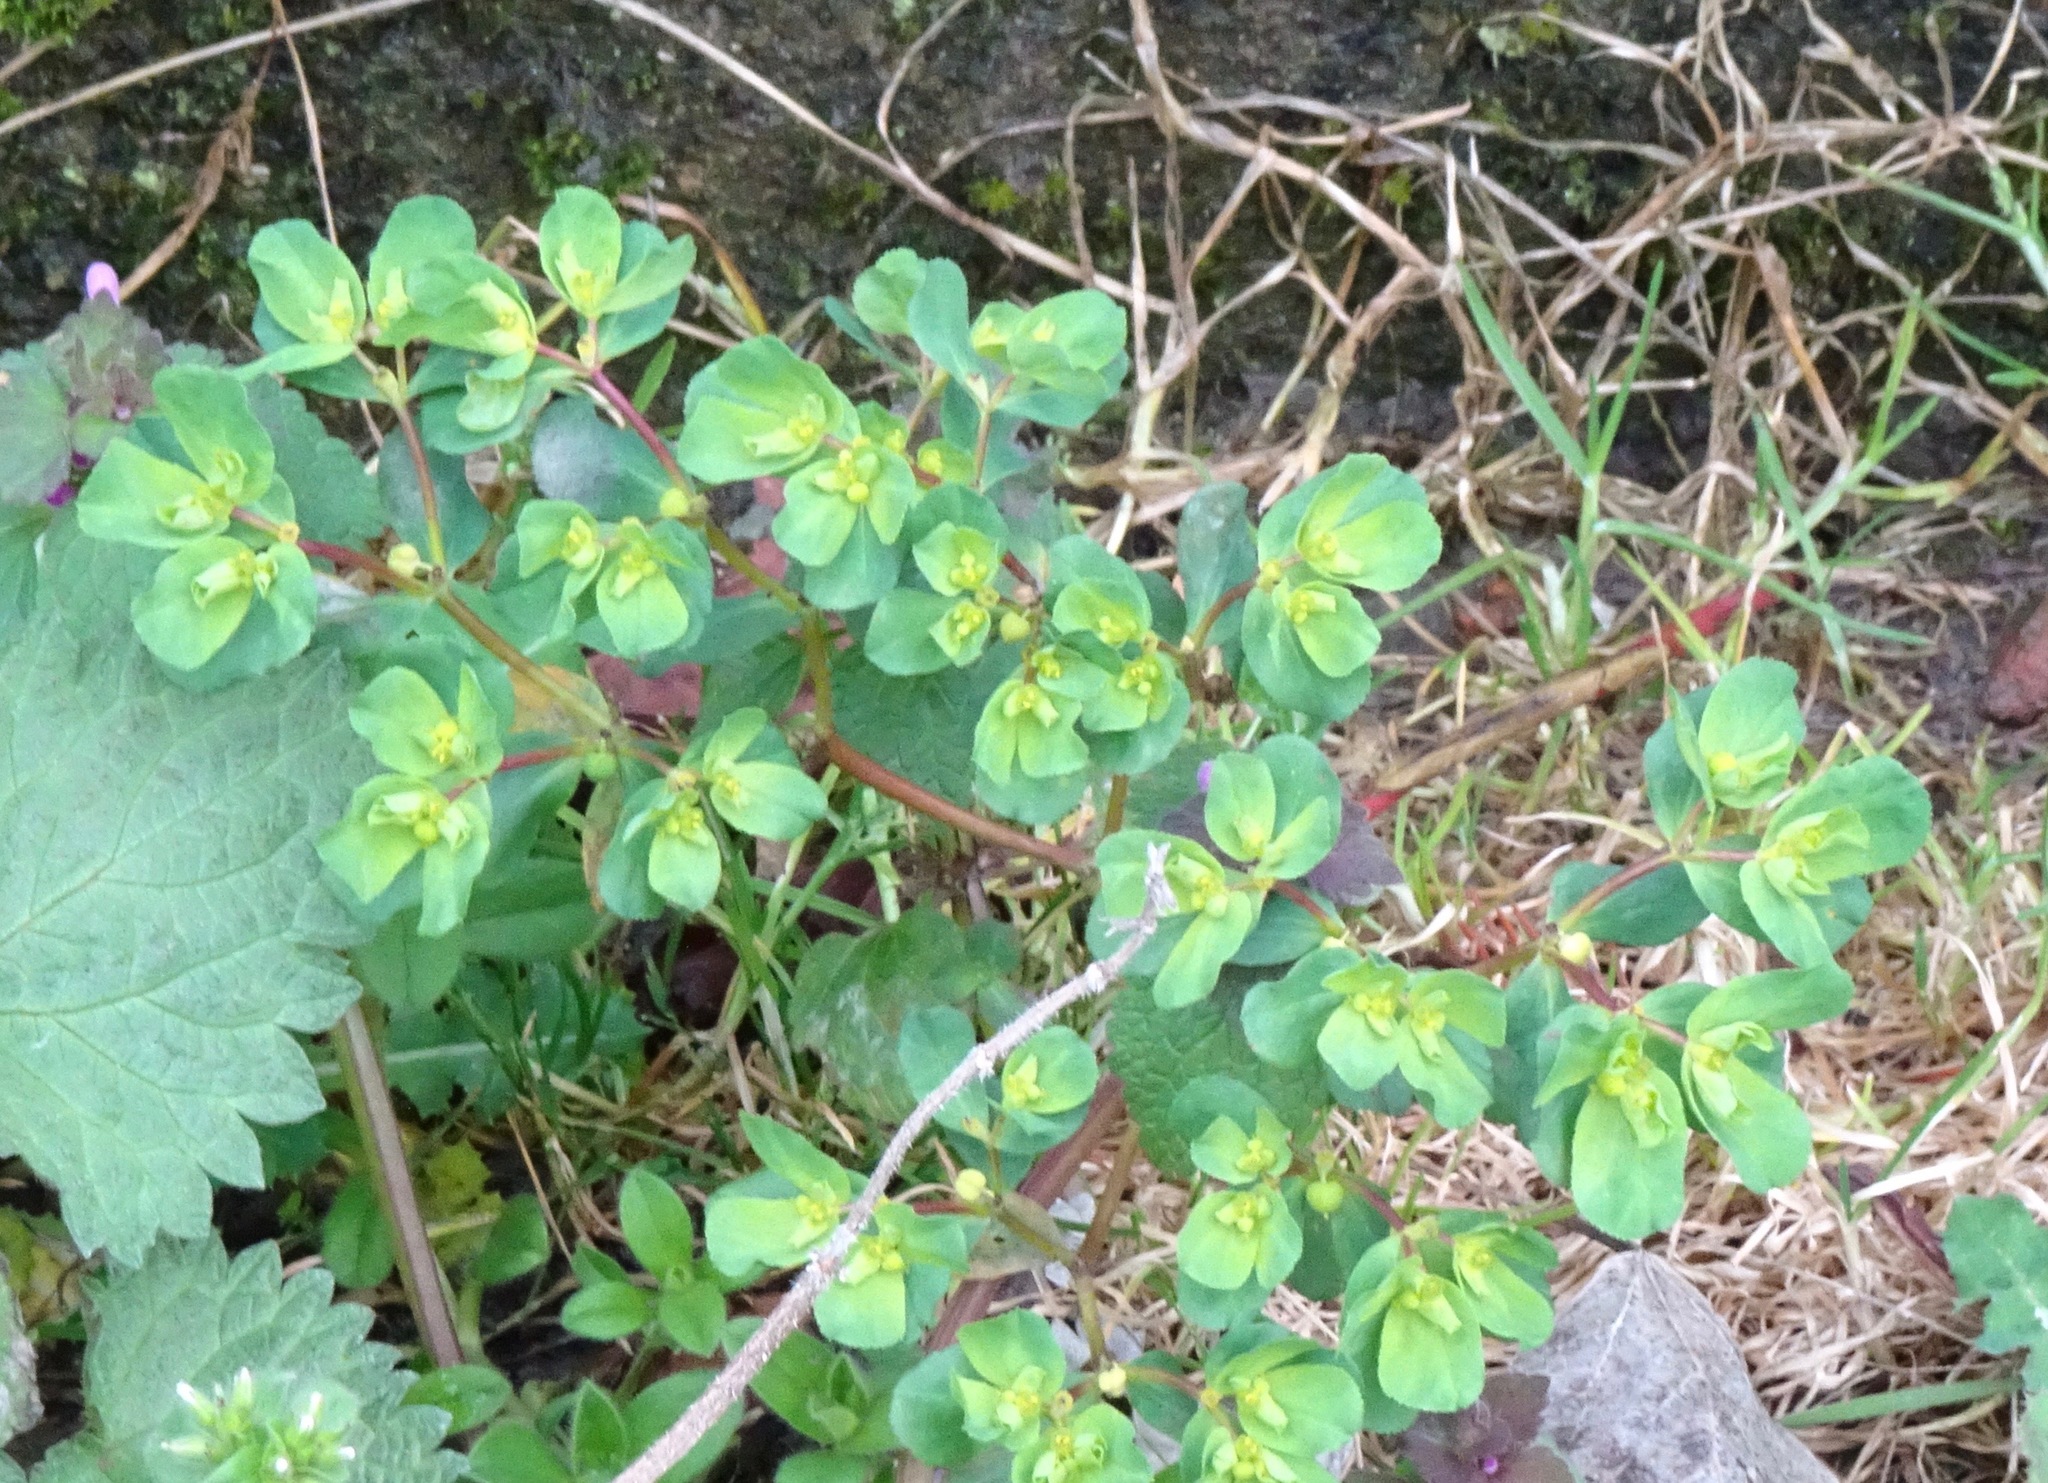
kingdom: Plantae
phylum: Tracheophyta
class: Magnoliopsida
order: Malpighiales
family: Euphorbiaceae
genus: Euphorbia
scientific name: Euphorbia helioscopia
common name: Sun spurge
